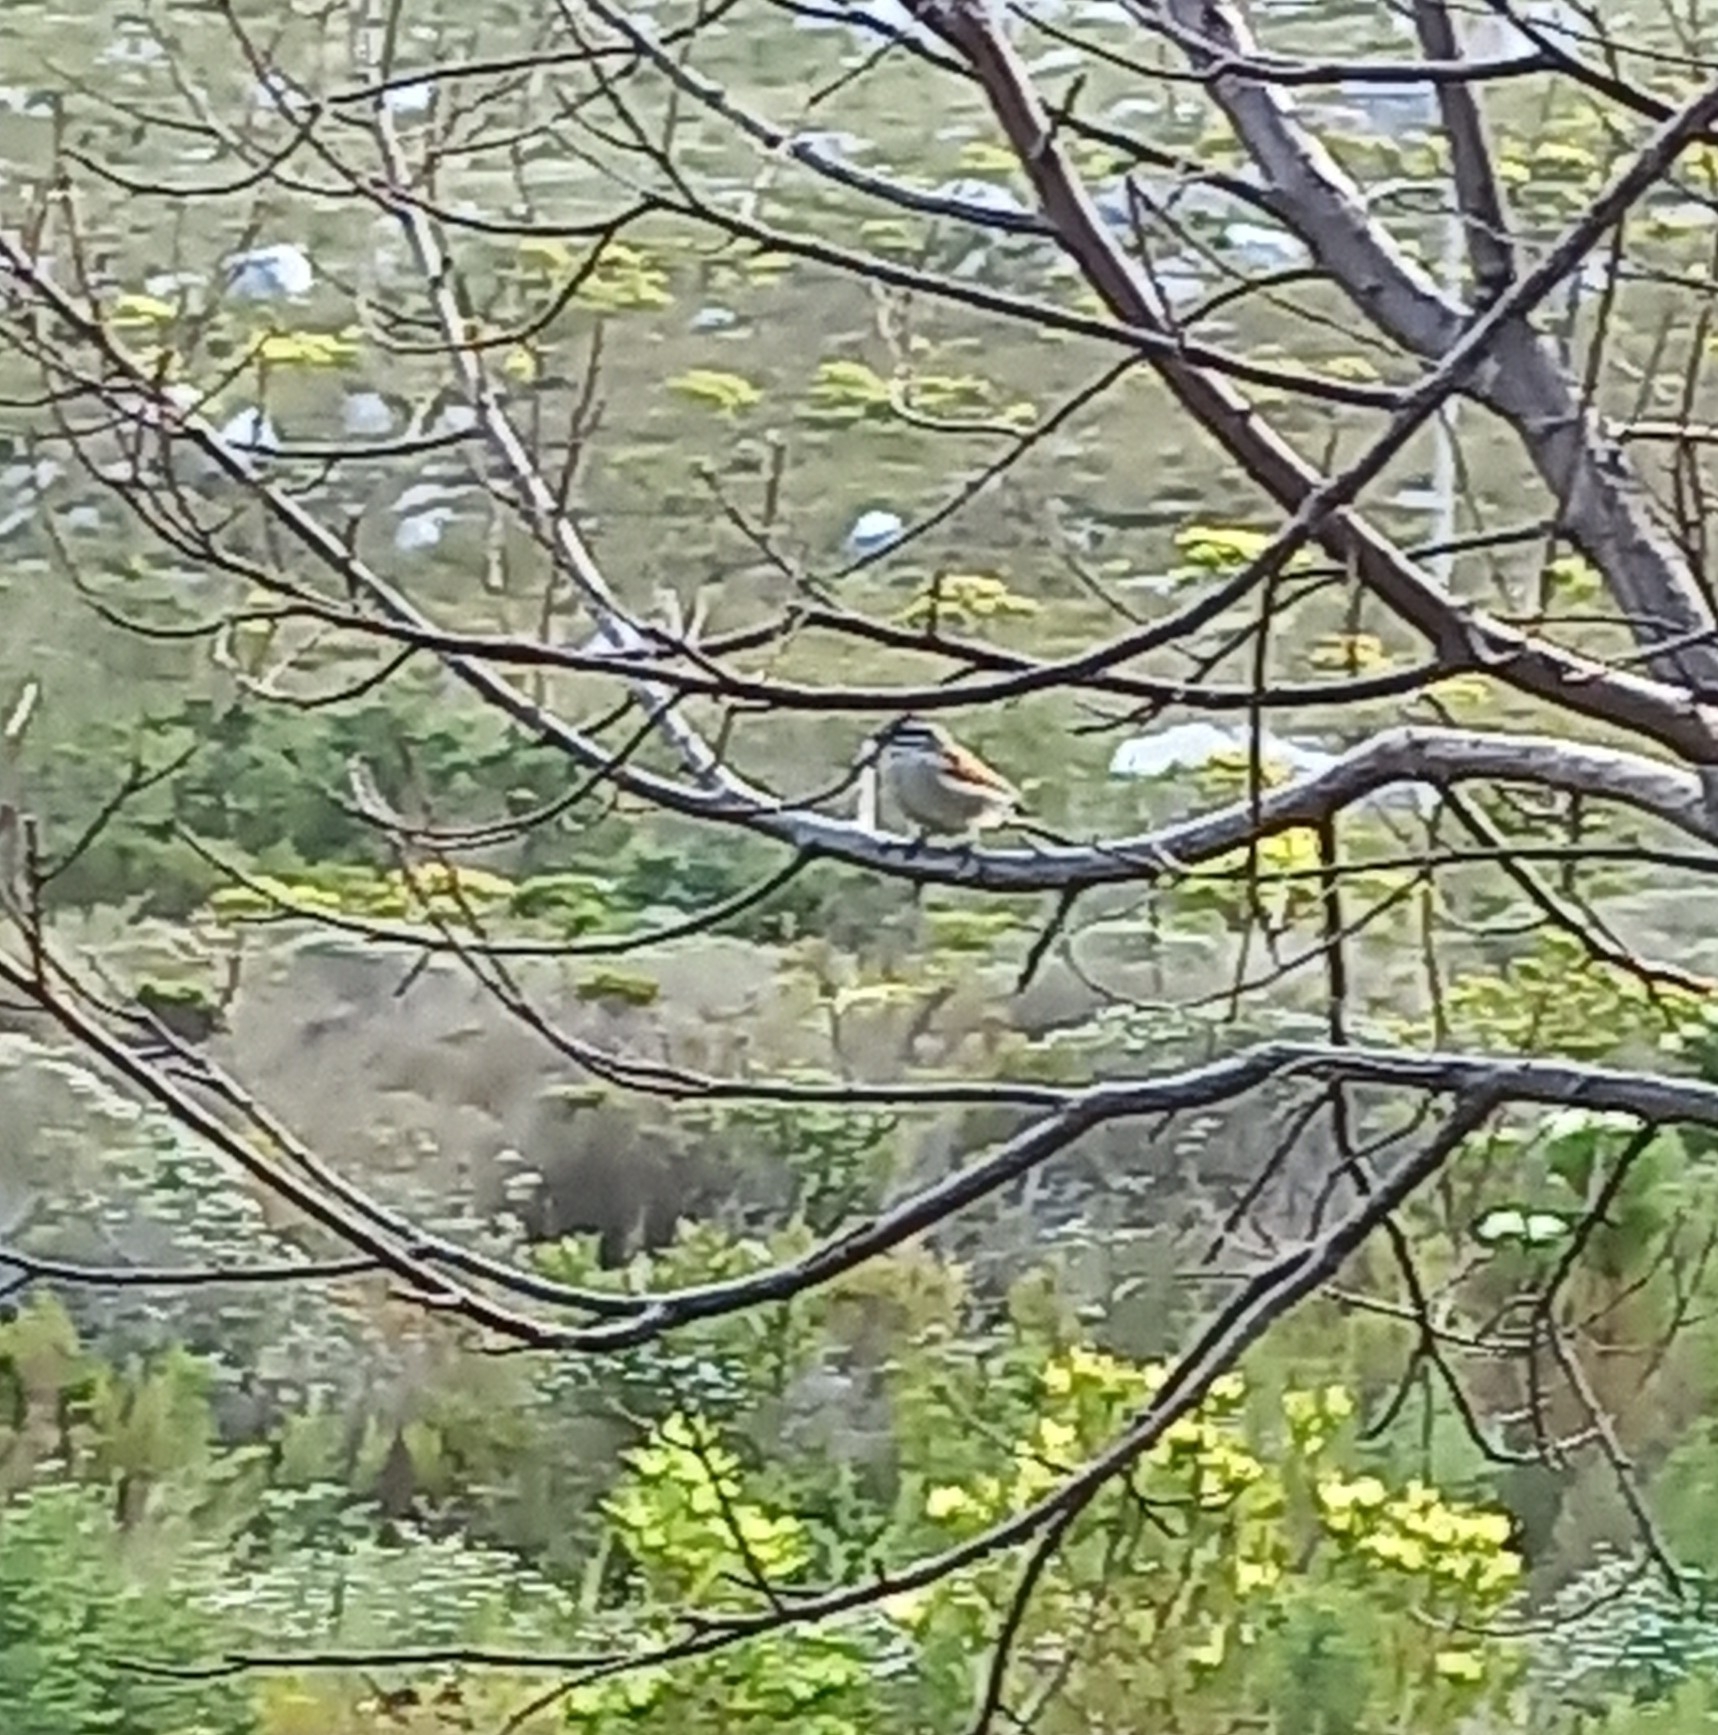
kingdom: Animalia
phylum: Chordata
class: Aves
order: Passeriformes
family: Emberizidae
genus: Emberiza
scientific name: Emberiza capensis
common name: Cape bunting
